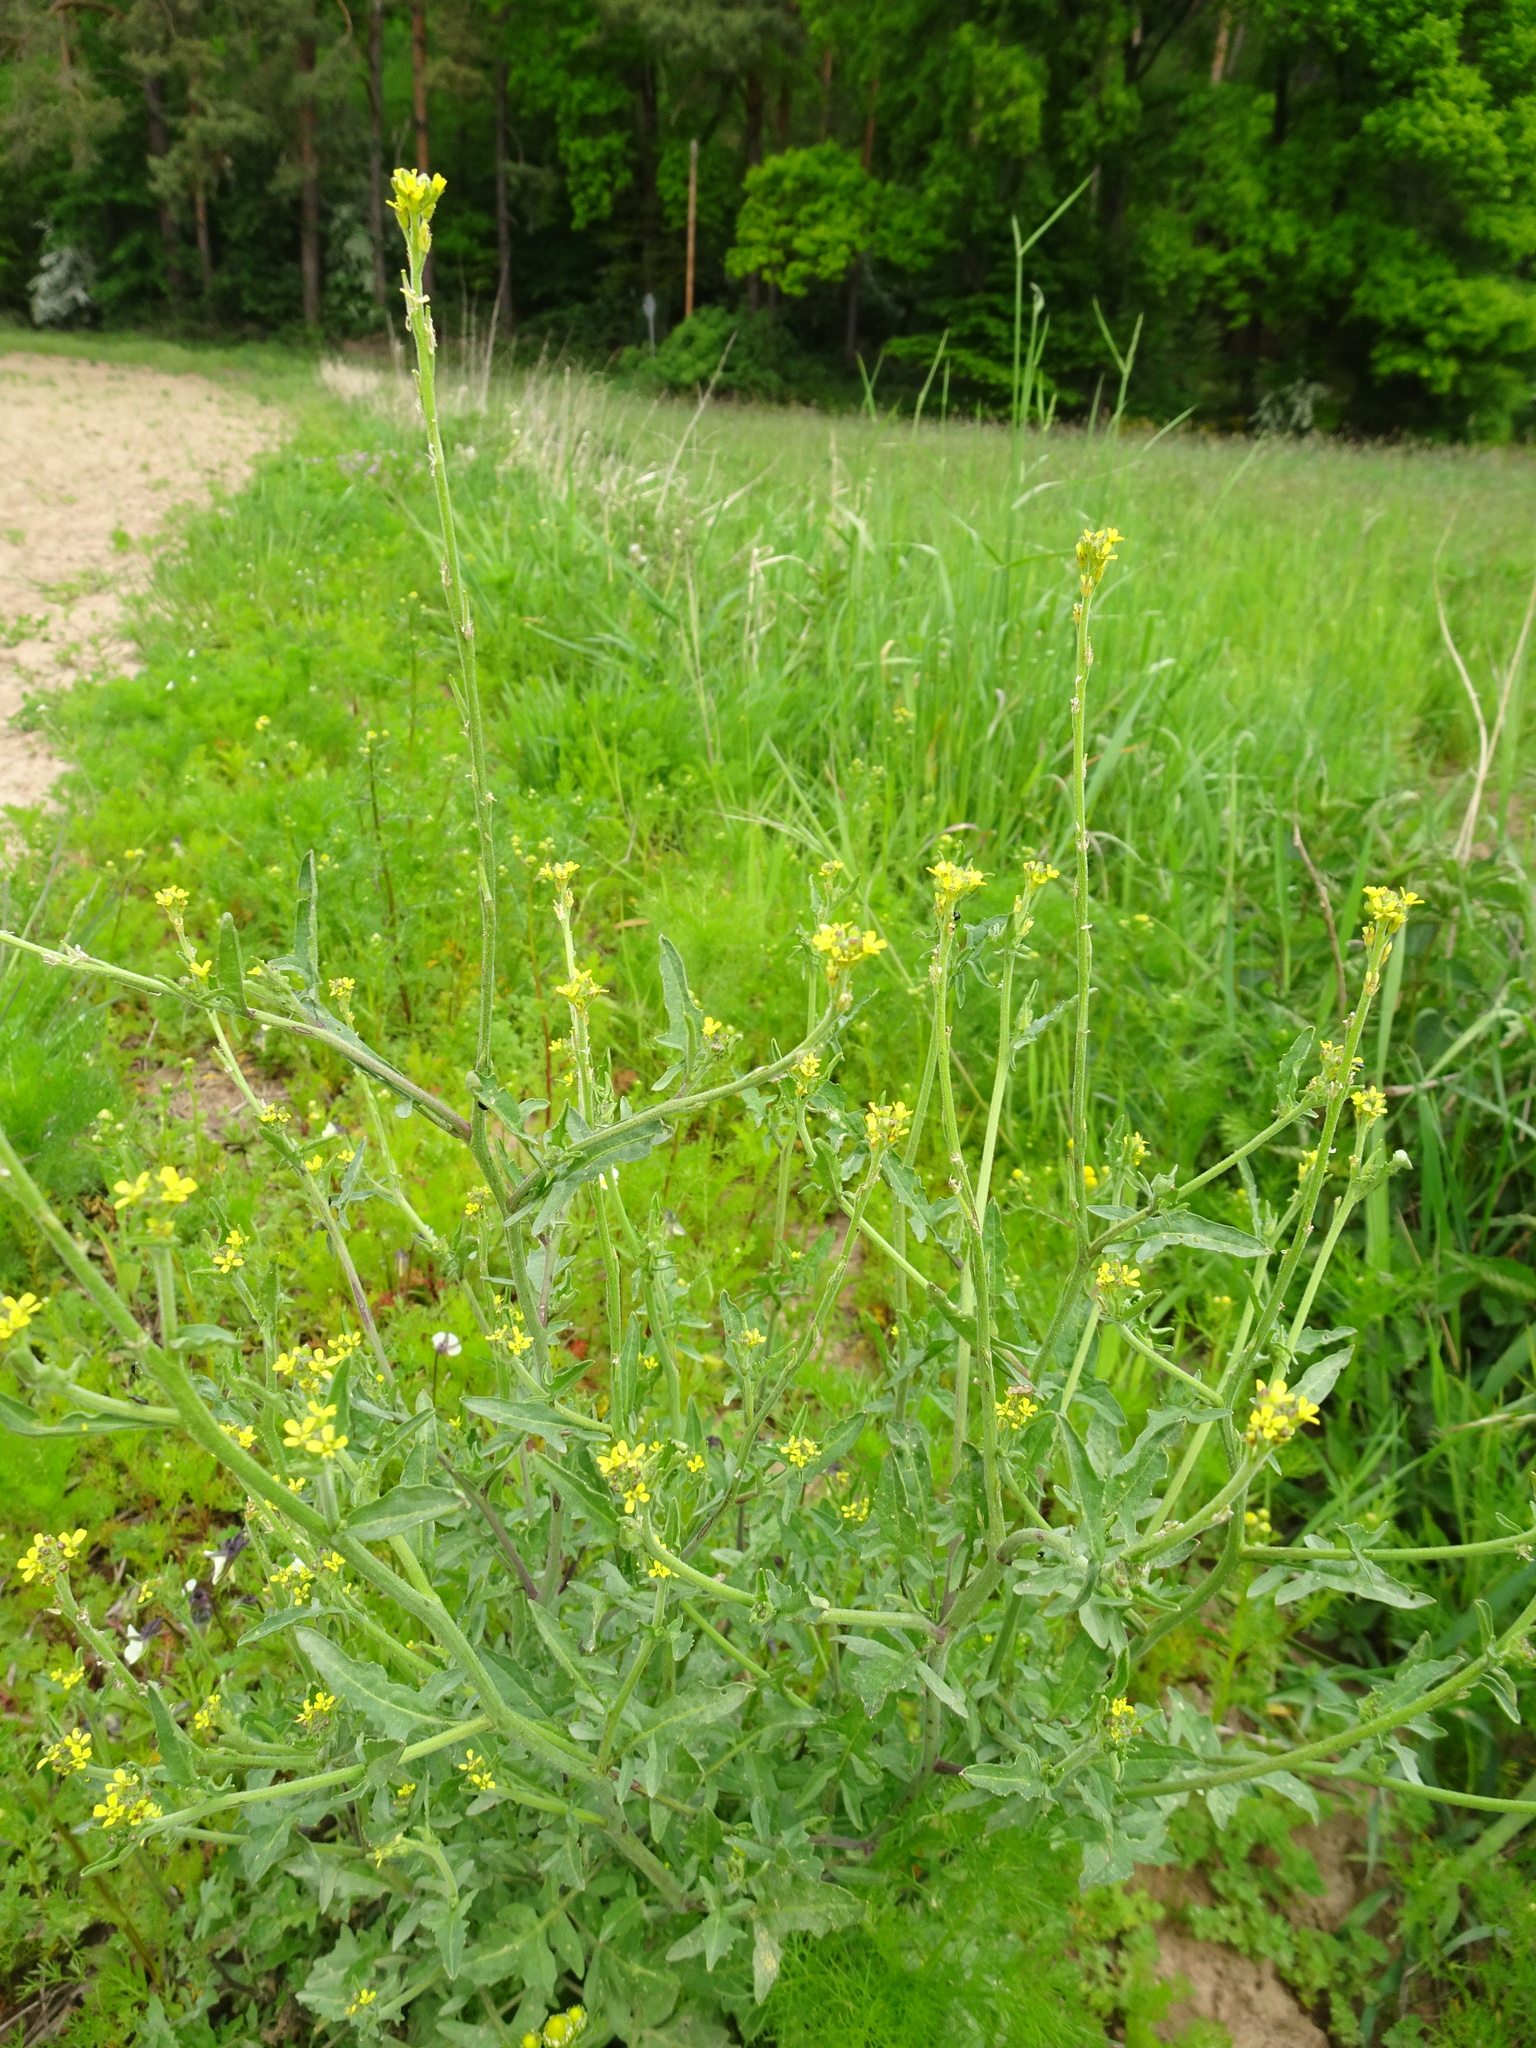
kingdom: Plantae
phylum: Tracheophyta
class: Magnoliopsida
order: Brassicales
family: Brassicaceae
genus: Sisymbrium
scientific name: Sisymbrium officinale
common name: Hedge mustard
